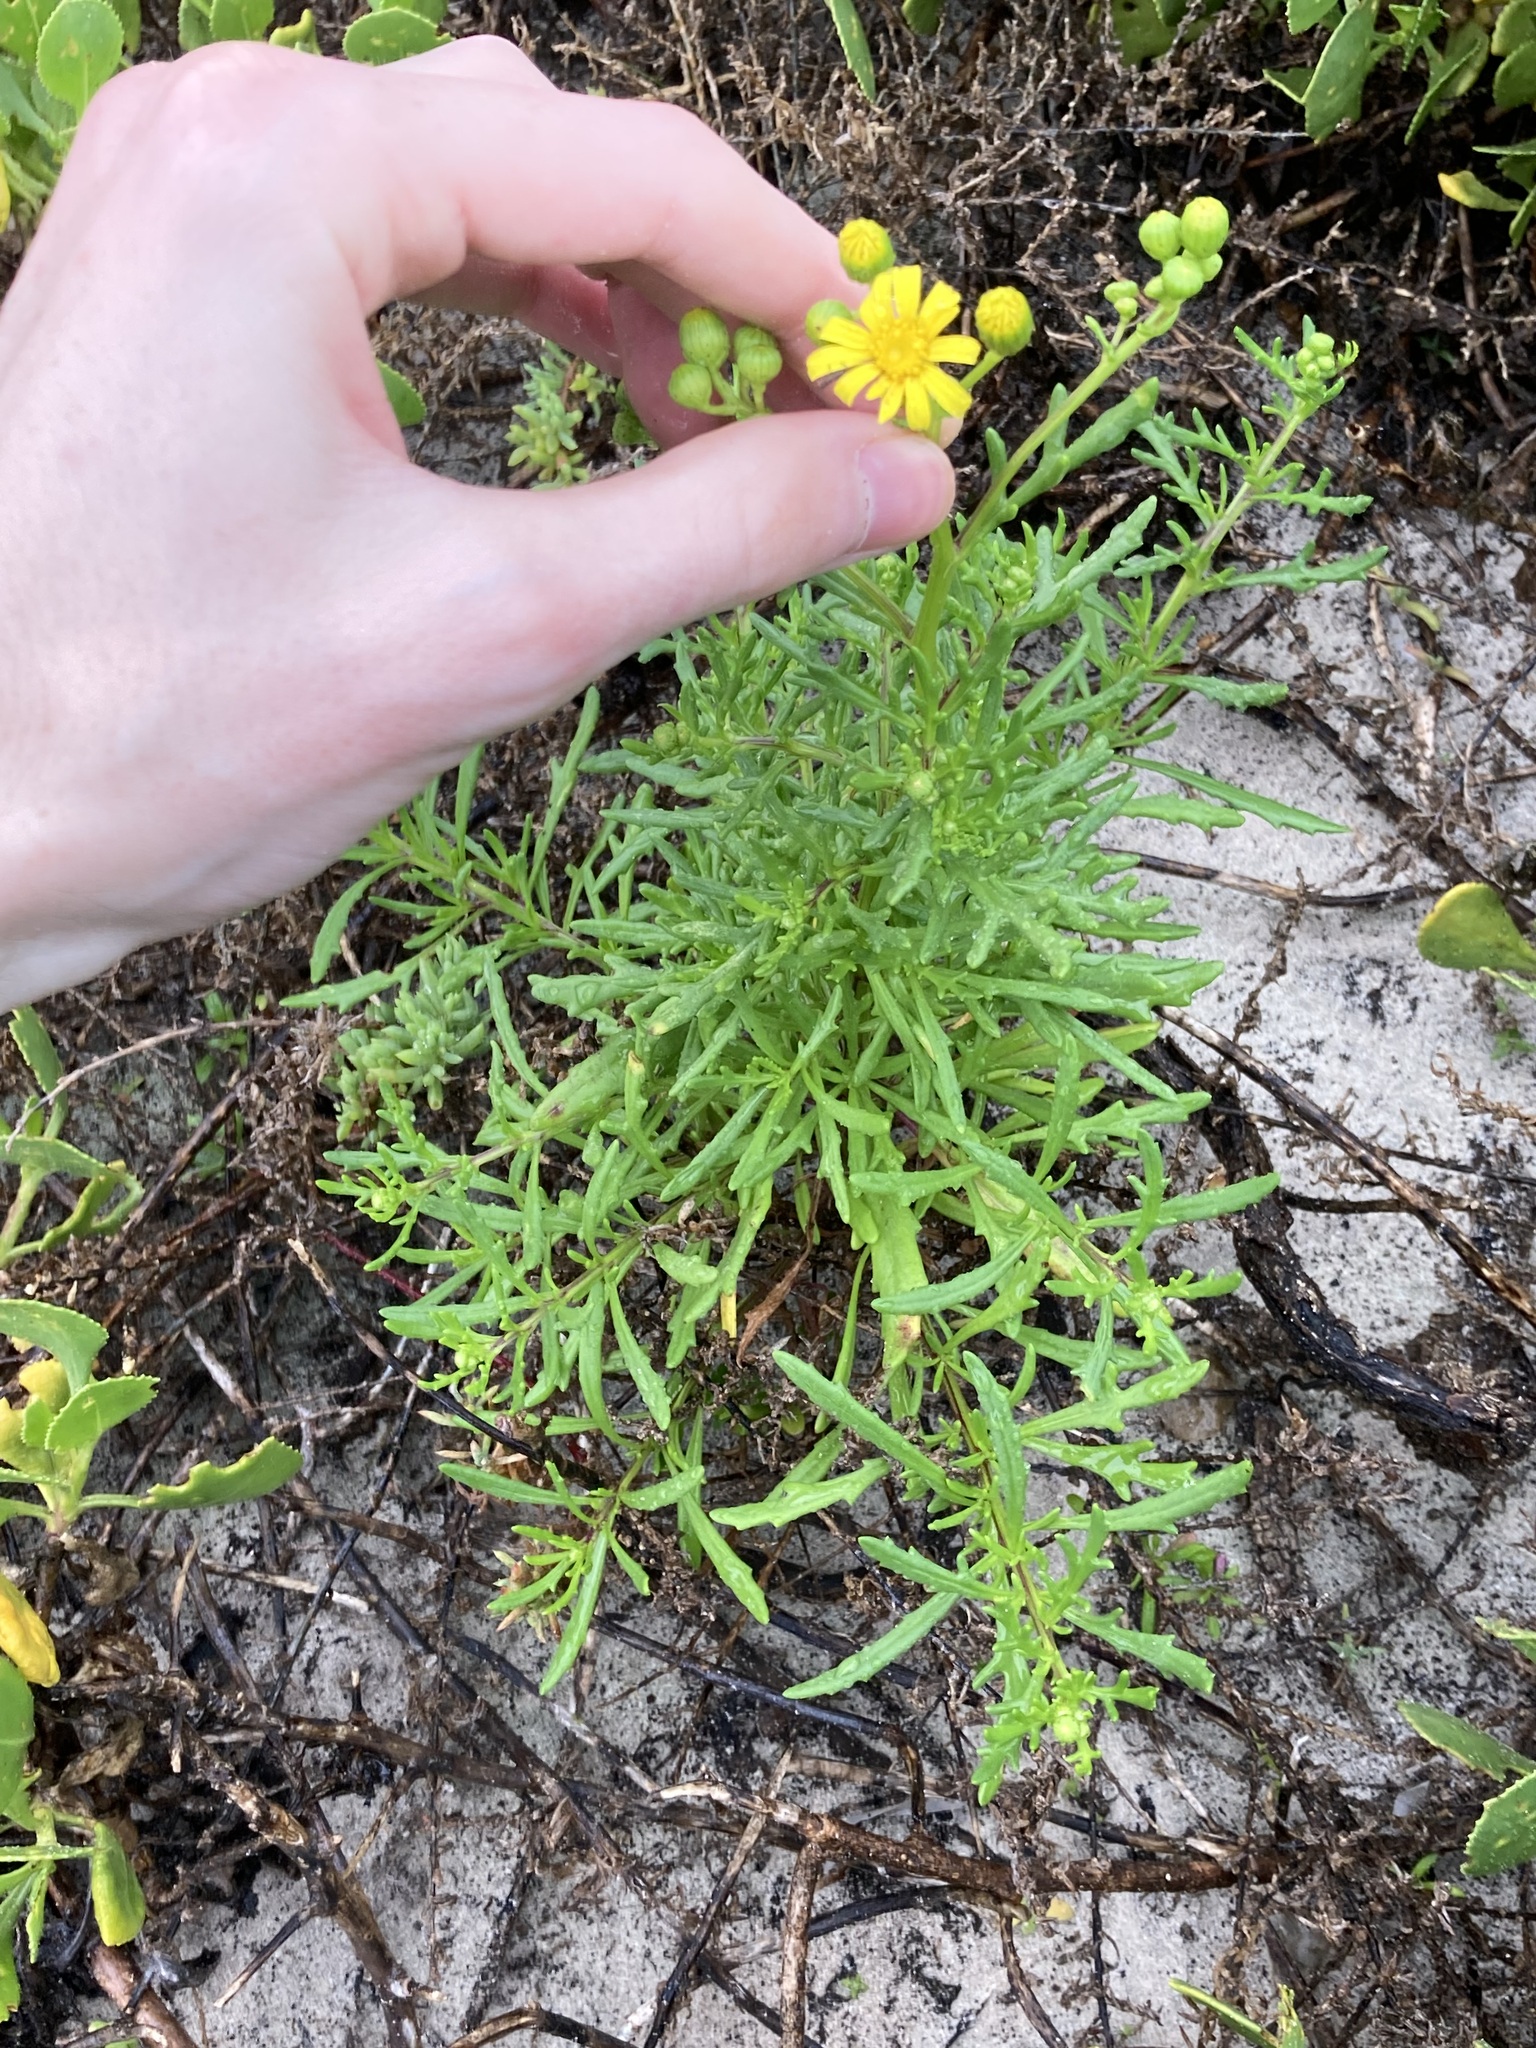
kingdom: Plantae
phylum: Tracheophyta
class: Magnoliopsida
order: Asterales
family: Asteraceae
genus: Senecio
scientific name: Senecio pinnatifolius
